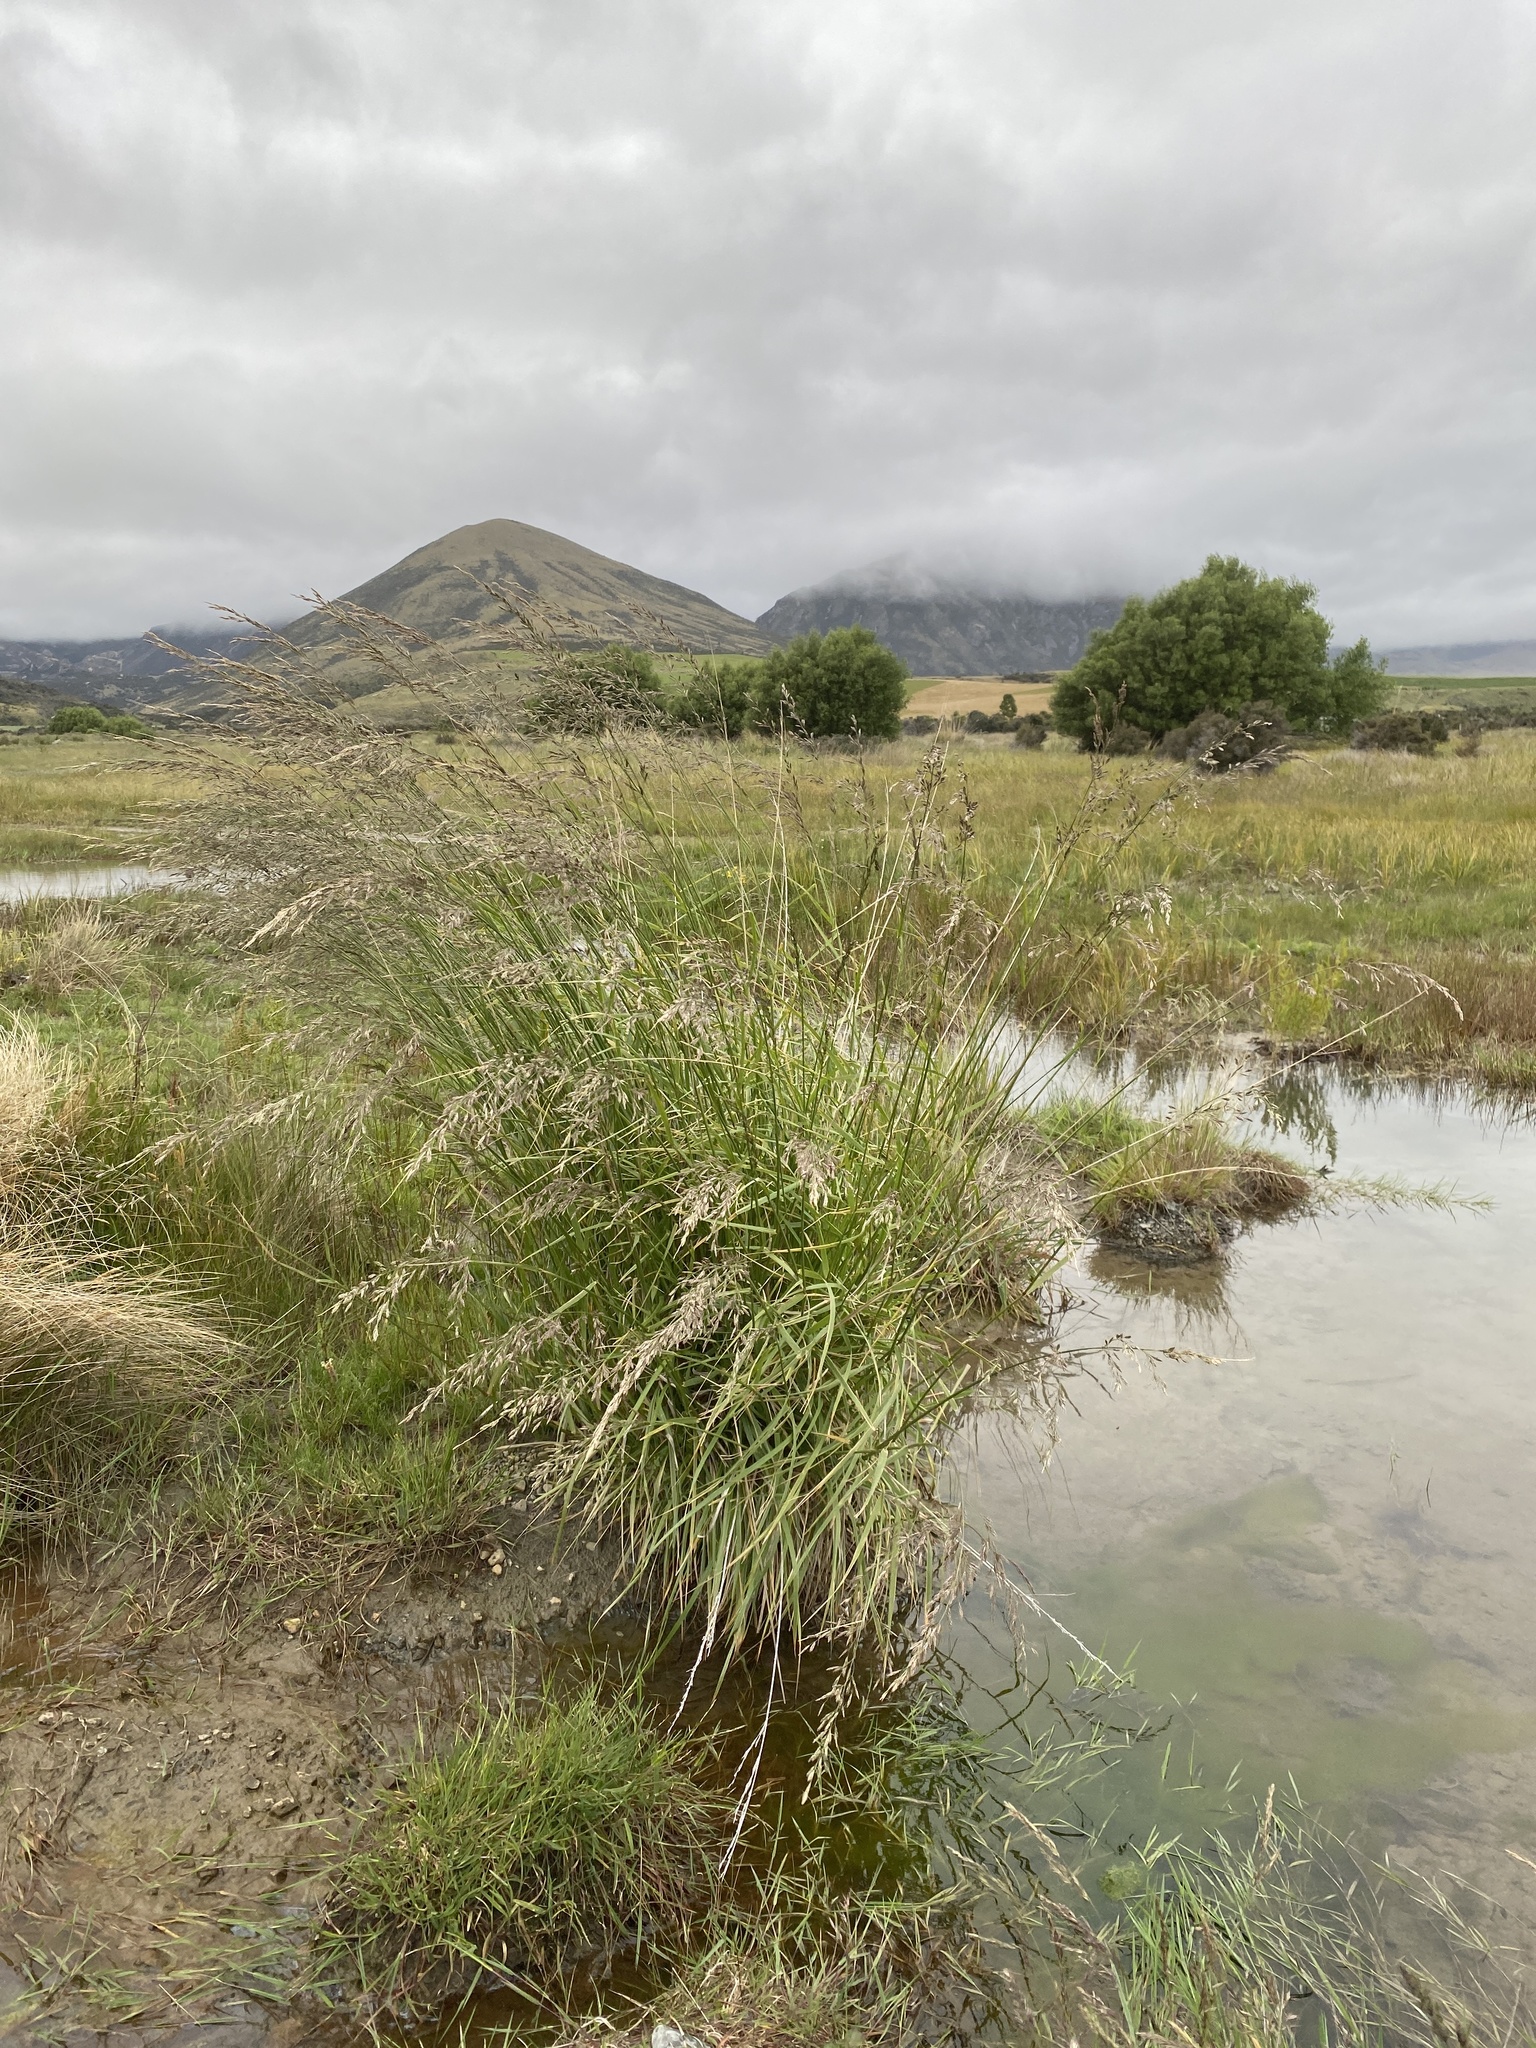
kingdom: Plantae
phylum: Tracheophyta
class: Liliopsida
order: Poales
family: Poaceae
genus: Lolium
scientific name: Lolium arundinaceum
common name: Reed fescue
